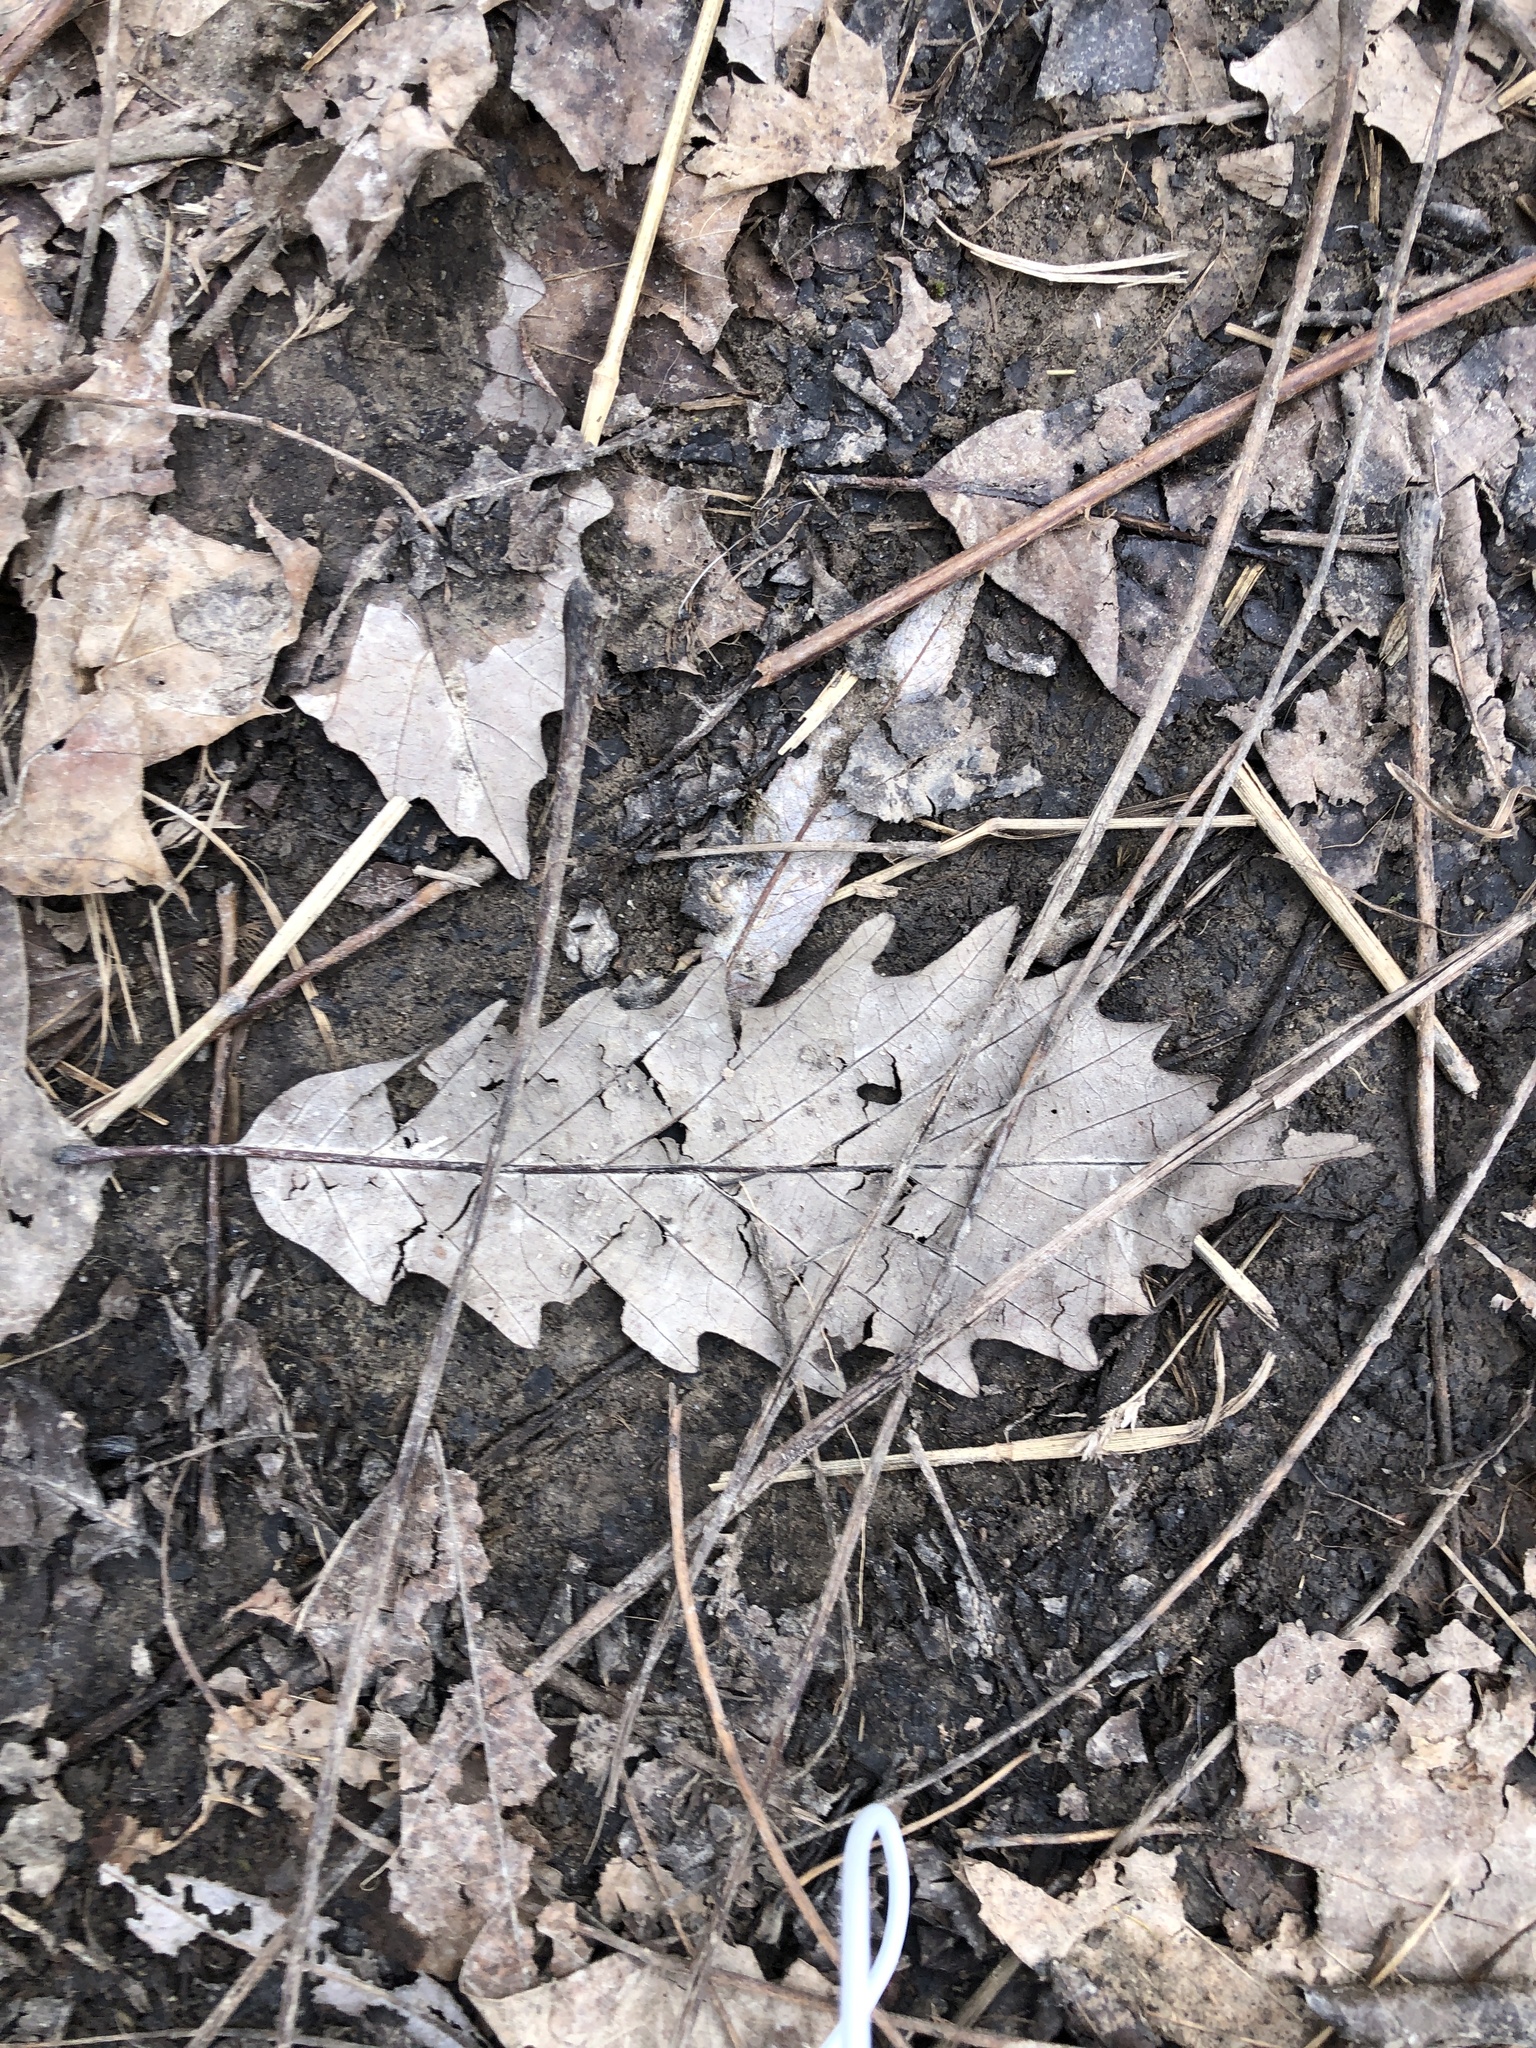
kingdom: Plantae
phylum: Tracheophyta
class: Magnoliopsida
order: Fagales
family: Fagaceae
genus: Quercus
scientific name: Quercus muehlenbergii
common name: Chinkapin oak
